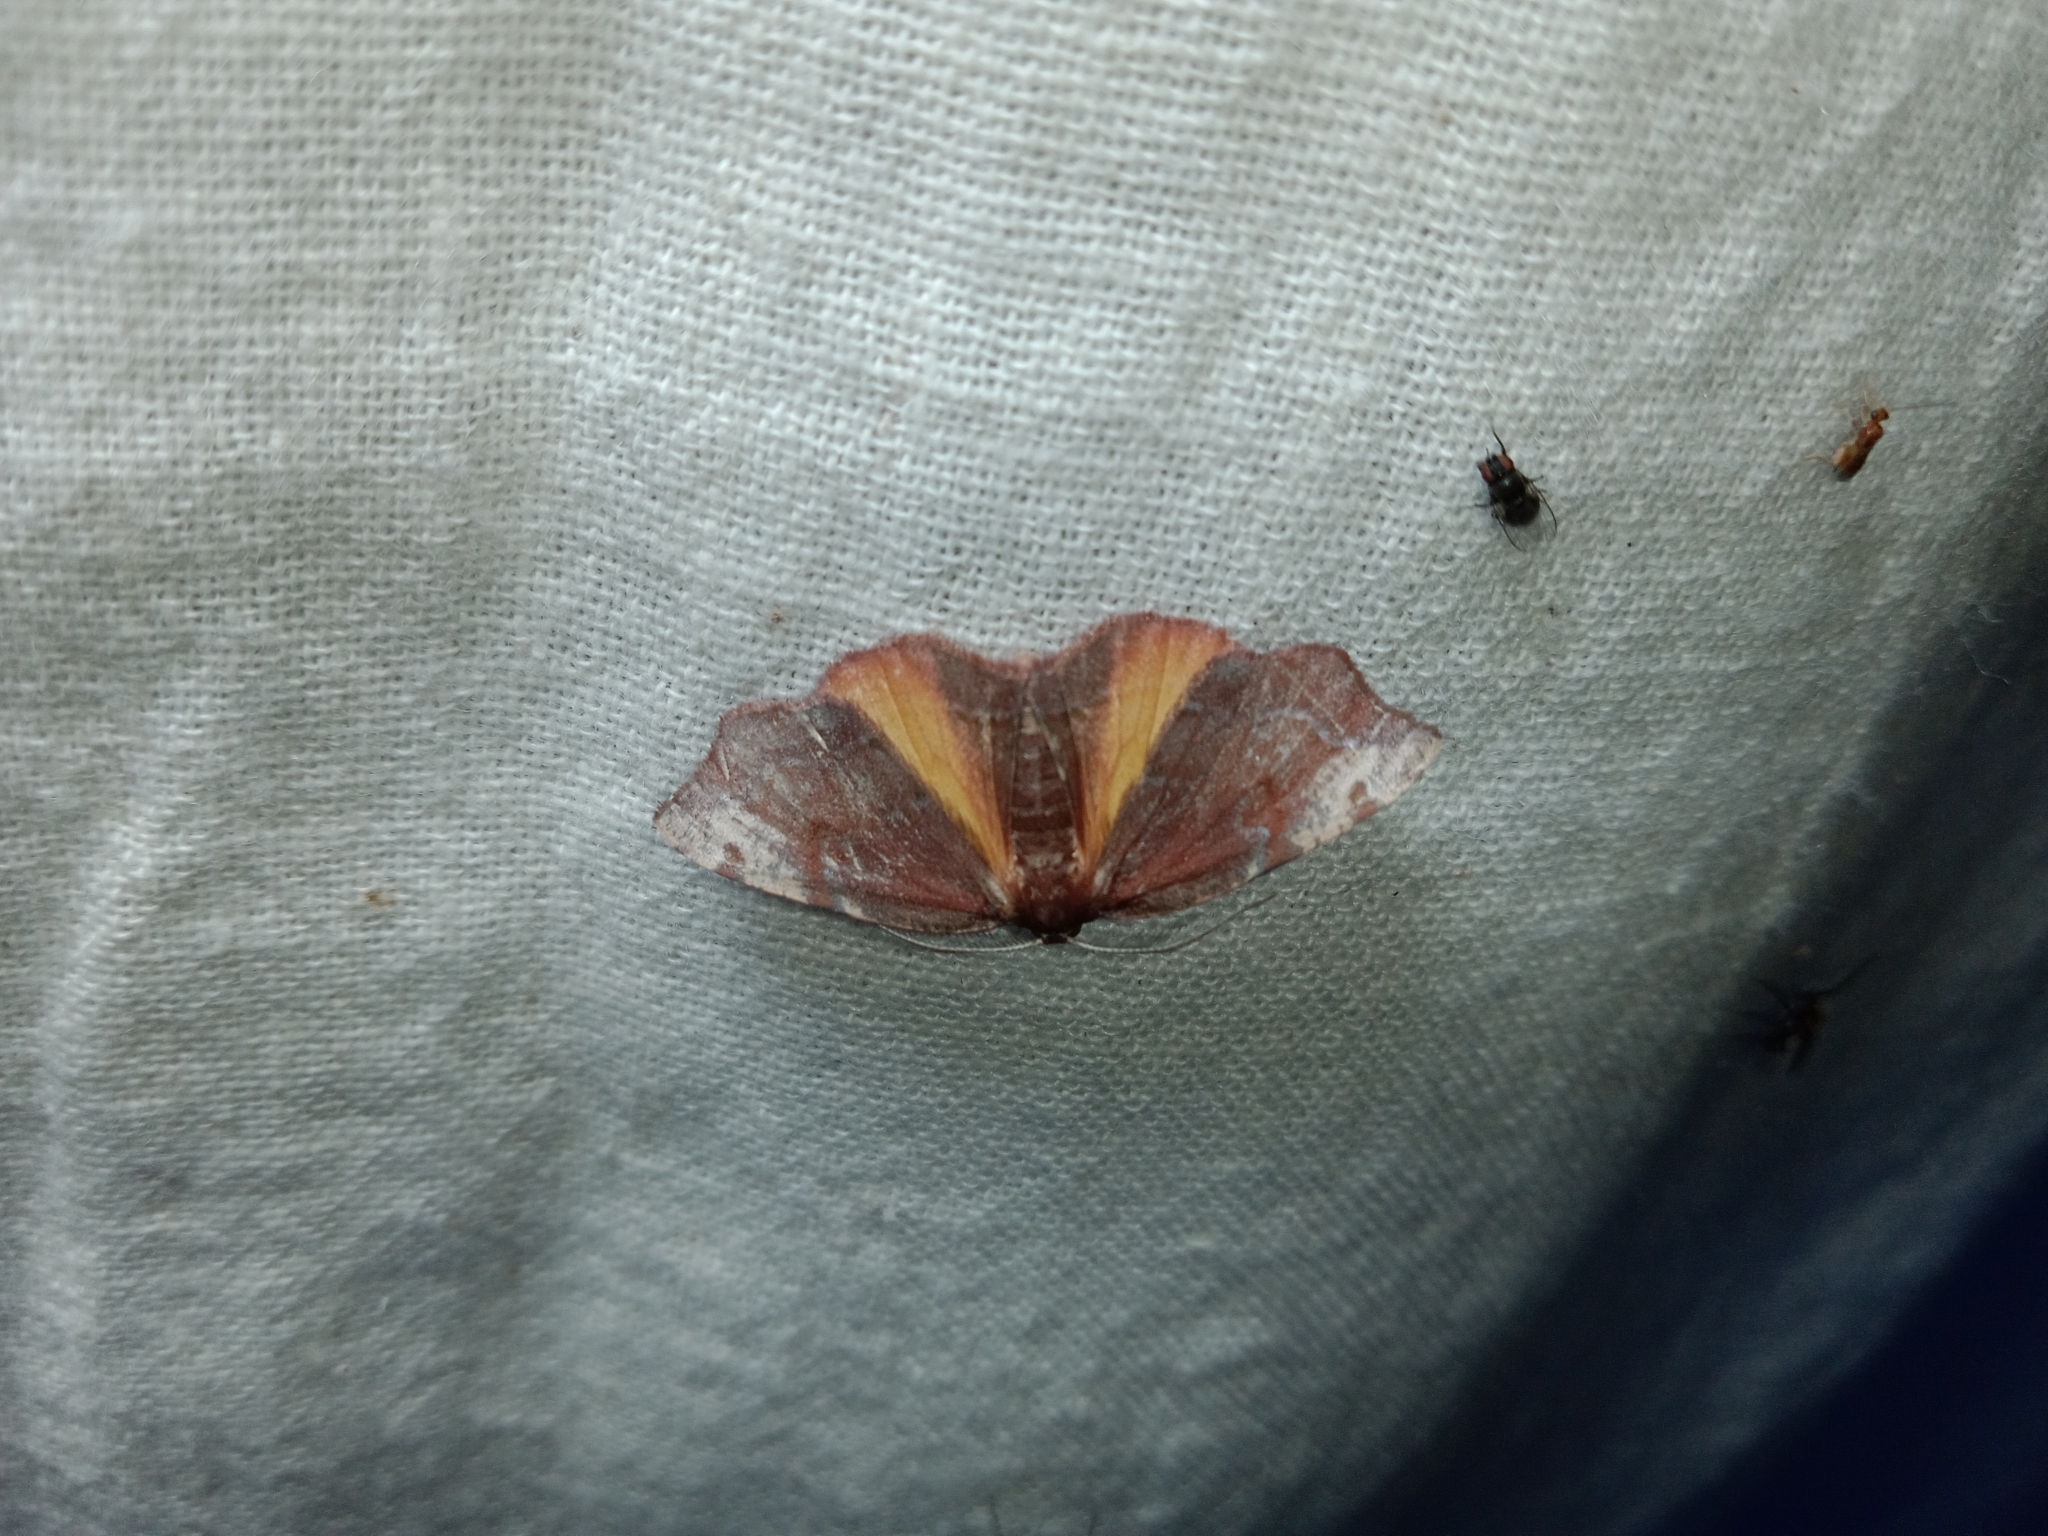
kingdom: Animalia
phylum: Arthropoda
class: Insecta
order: Lepidoptera
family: Geometridae
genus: Achrosis
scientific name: Achrosis rondelaria
